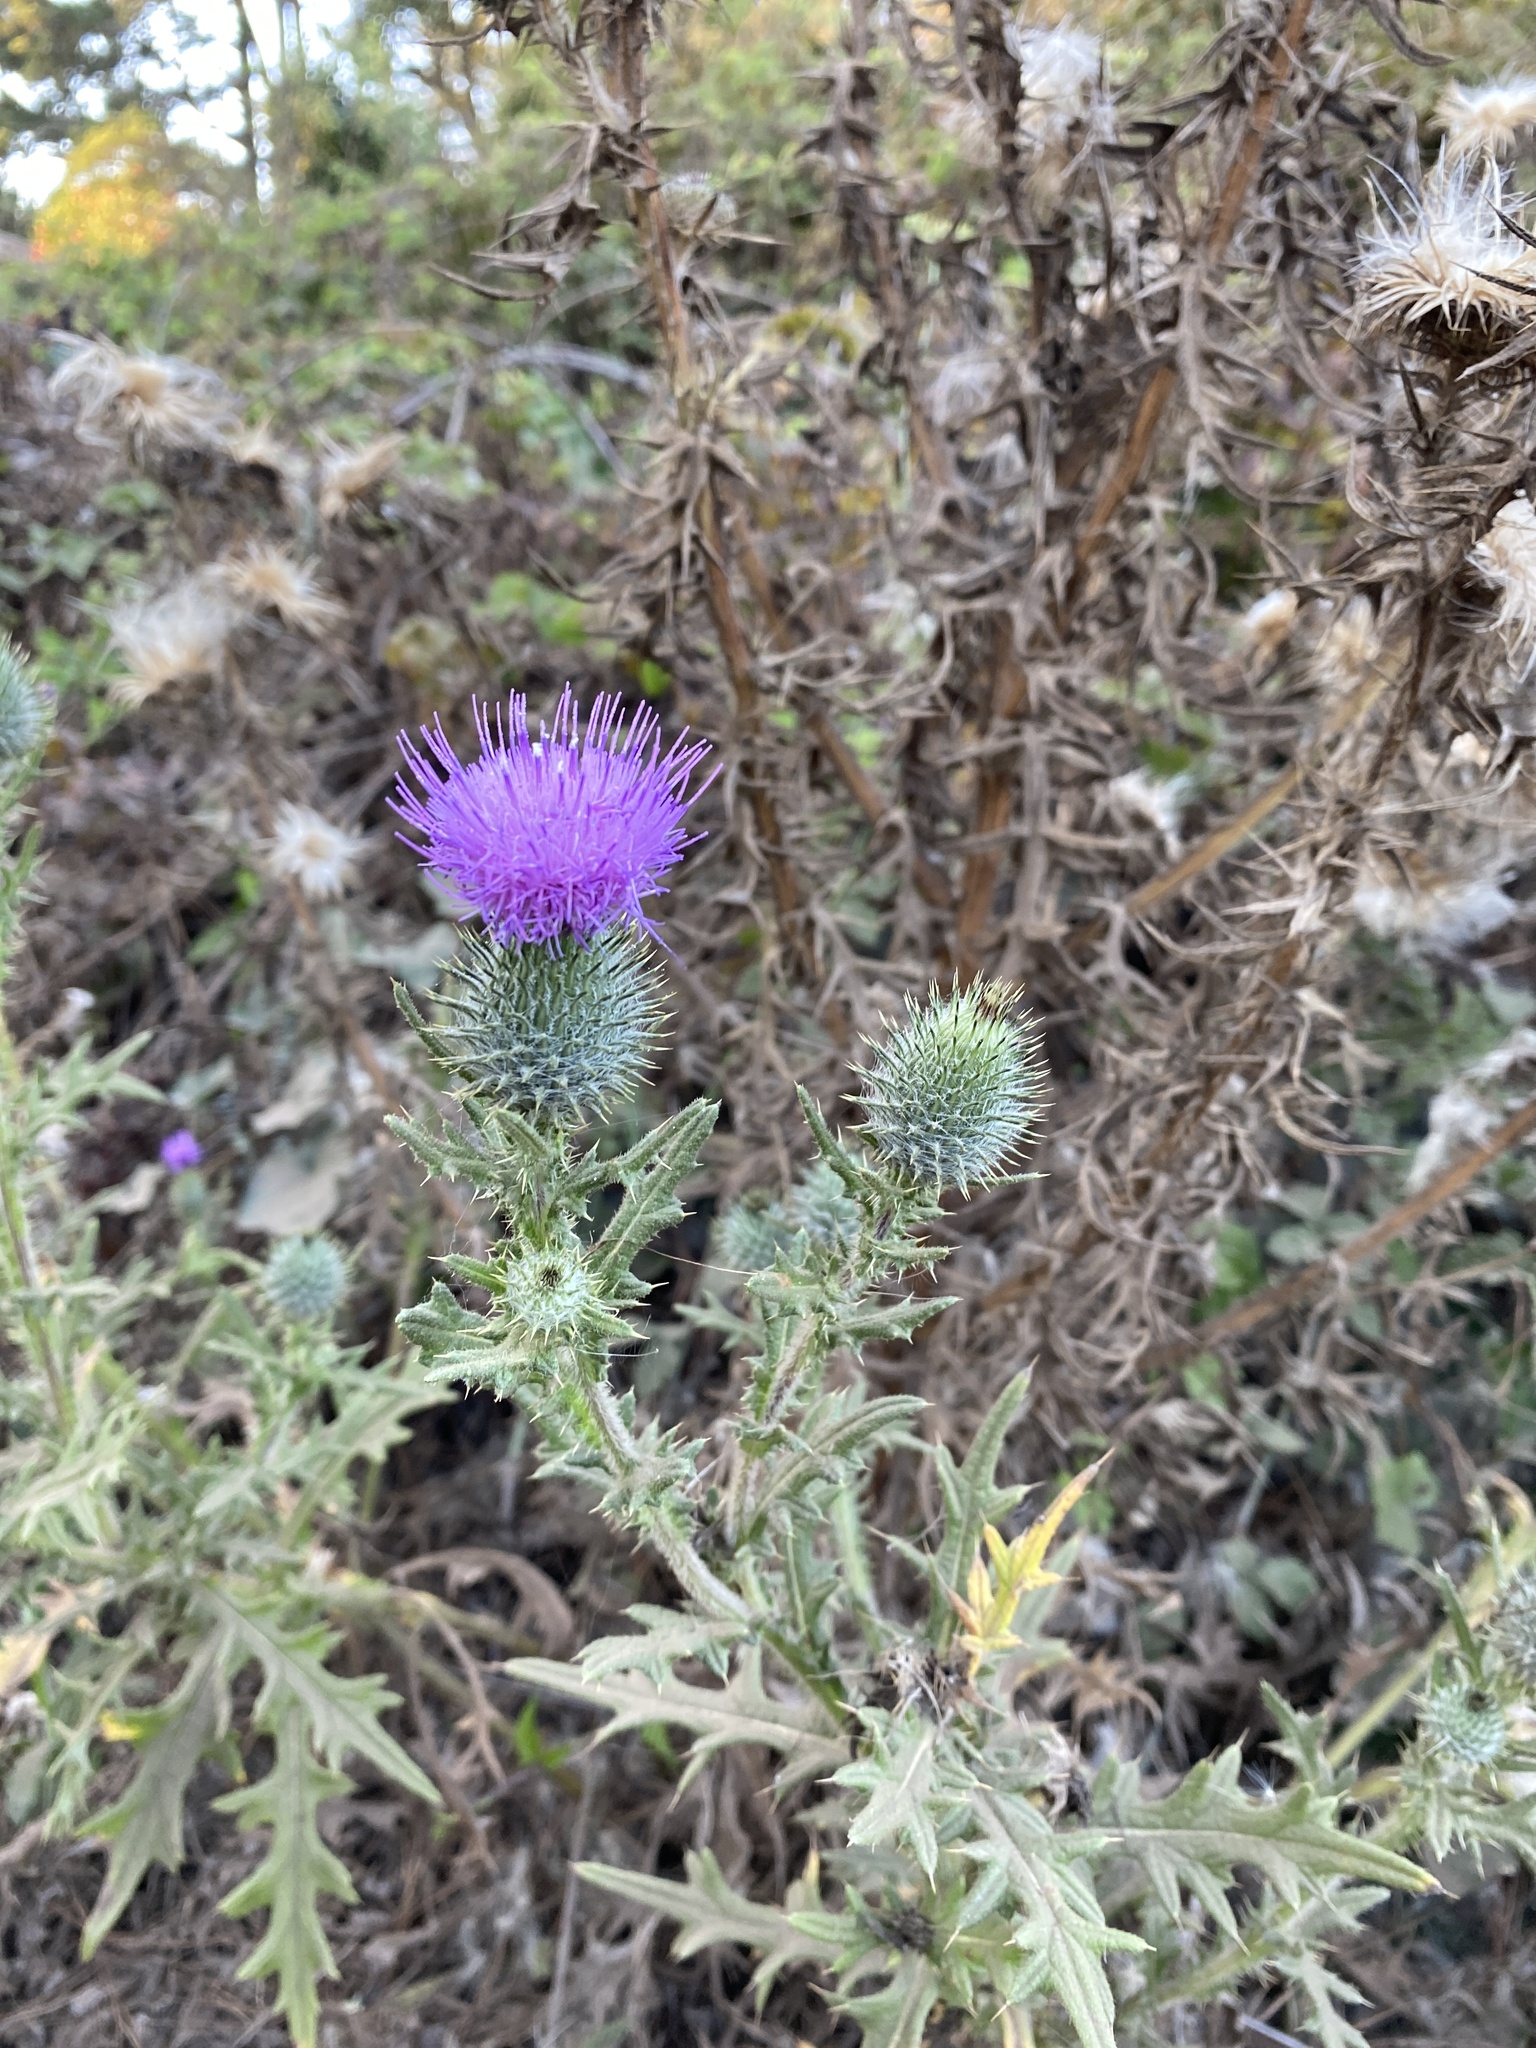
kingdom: Plantae
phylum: Tracheophyta
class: Magnoliopsida
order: Asterales
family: Asteraceae
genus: Cirsium
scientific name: Cirsium vulgare
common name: Bull thistle
